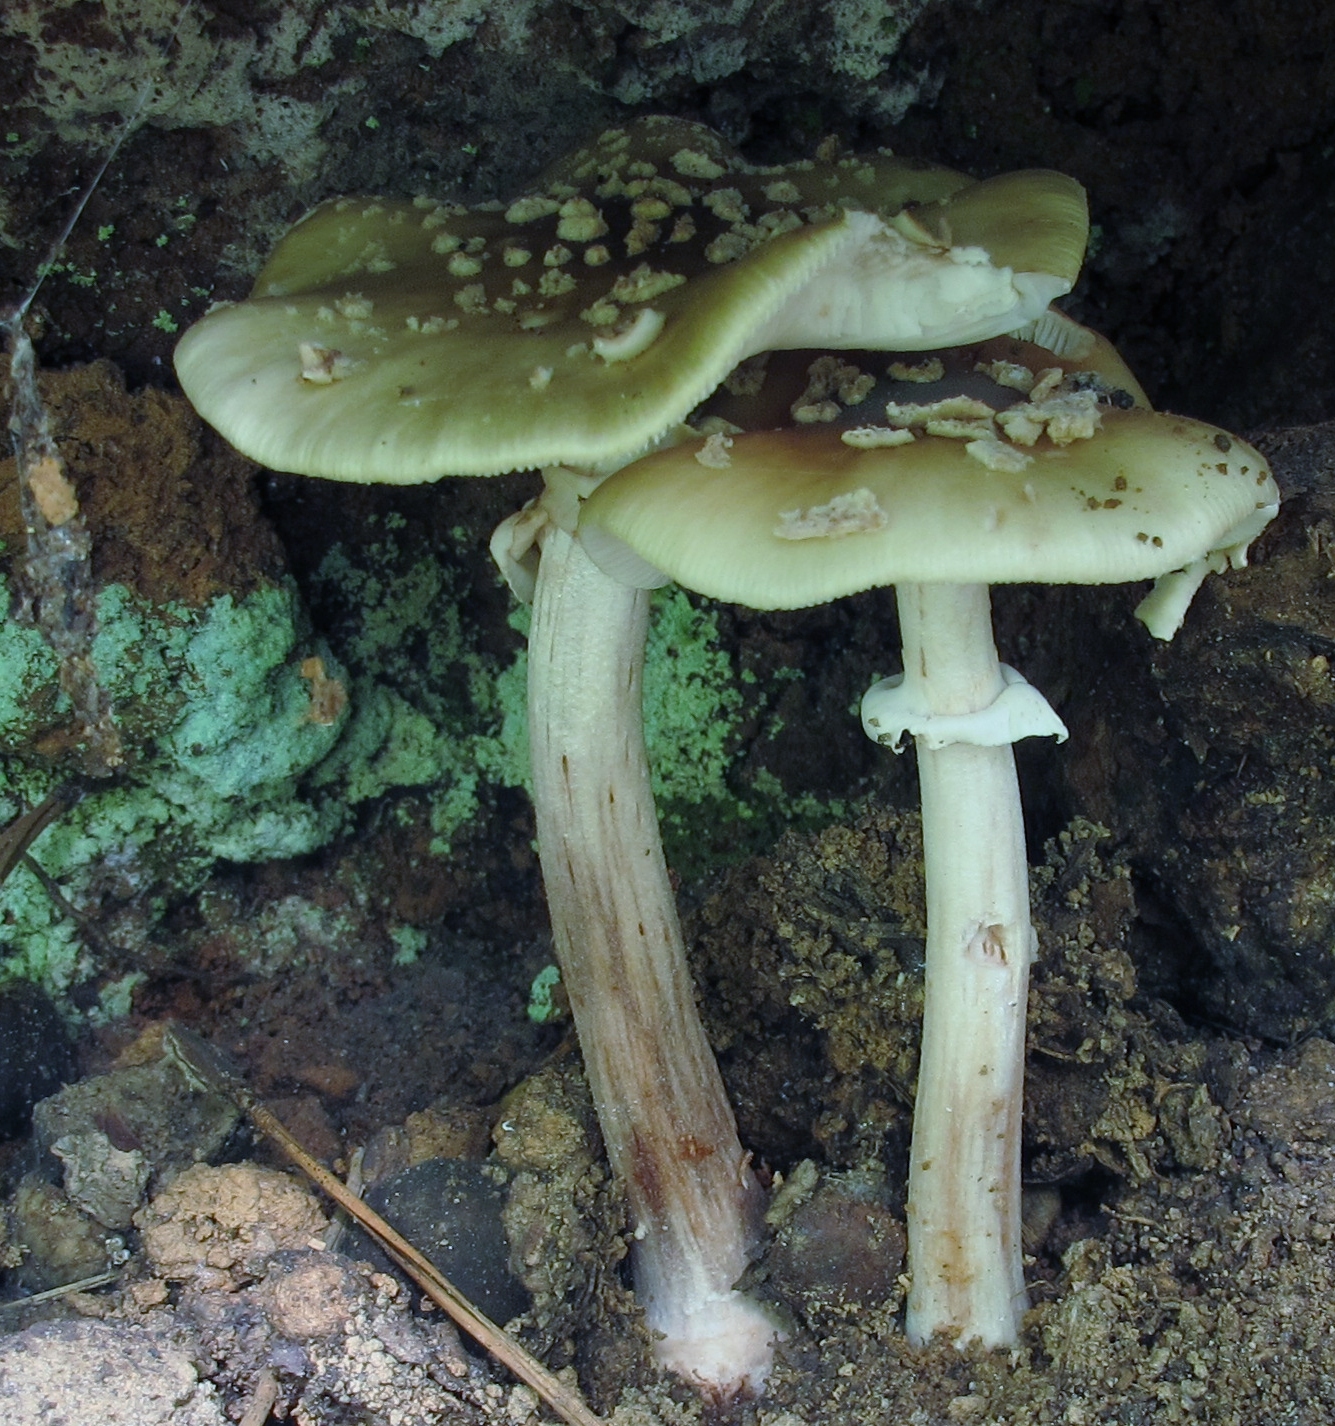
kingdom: Fungi
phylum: Basidiomycota
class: Agaricomycetes
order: Agaricales
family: Amanitaceae
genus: Amanita
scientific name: Amanita brunnescens
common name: Brown american star-footed amanita
